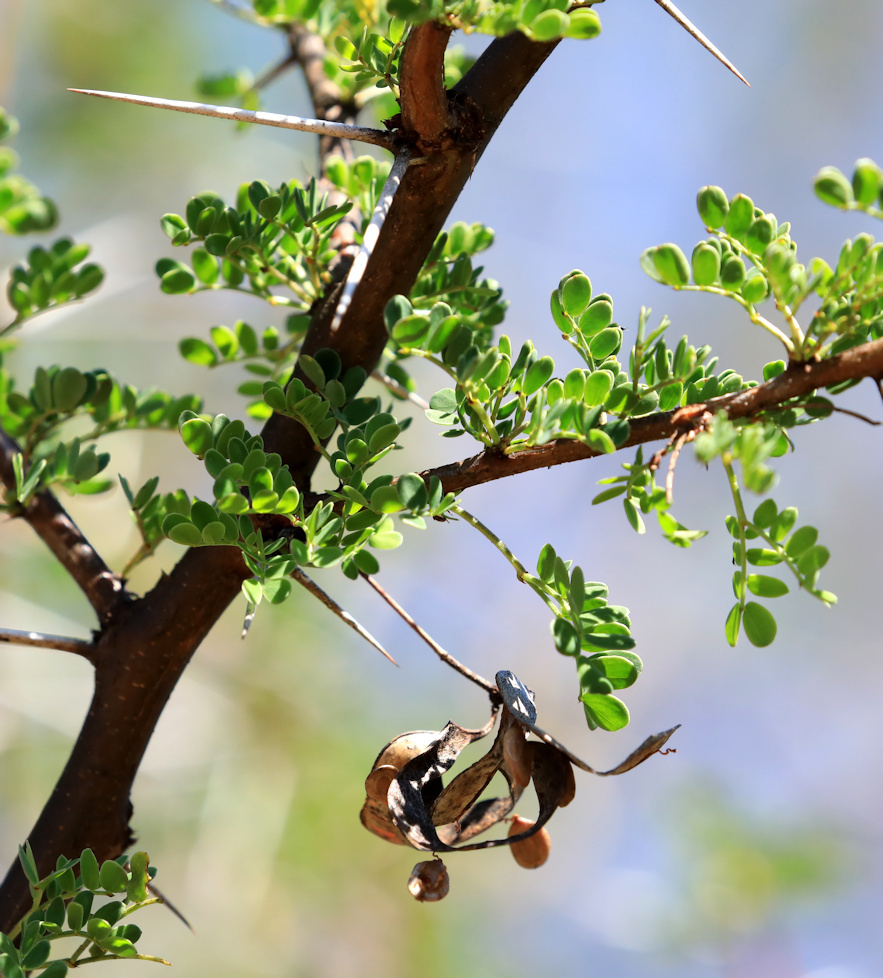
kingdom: Plantae
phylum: Tracheophyta
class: Magnoliopsida
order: Fabales
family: Fabaceae
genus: Vachellia
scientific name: Vachellia exuvialis
